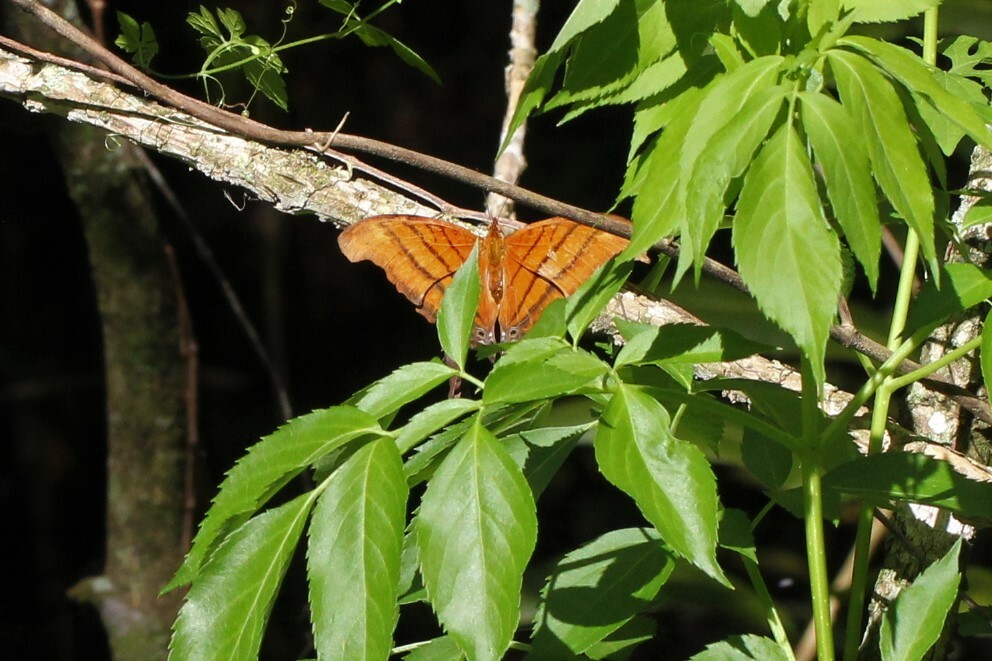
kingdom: Animalia
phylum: Arthropoda
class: Insecta
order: Lepidoptera
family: Nymphalidae
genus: Marpesia
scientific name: Marpesia petreus
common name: Red dagger wing
